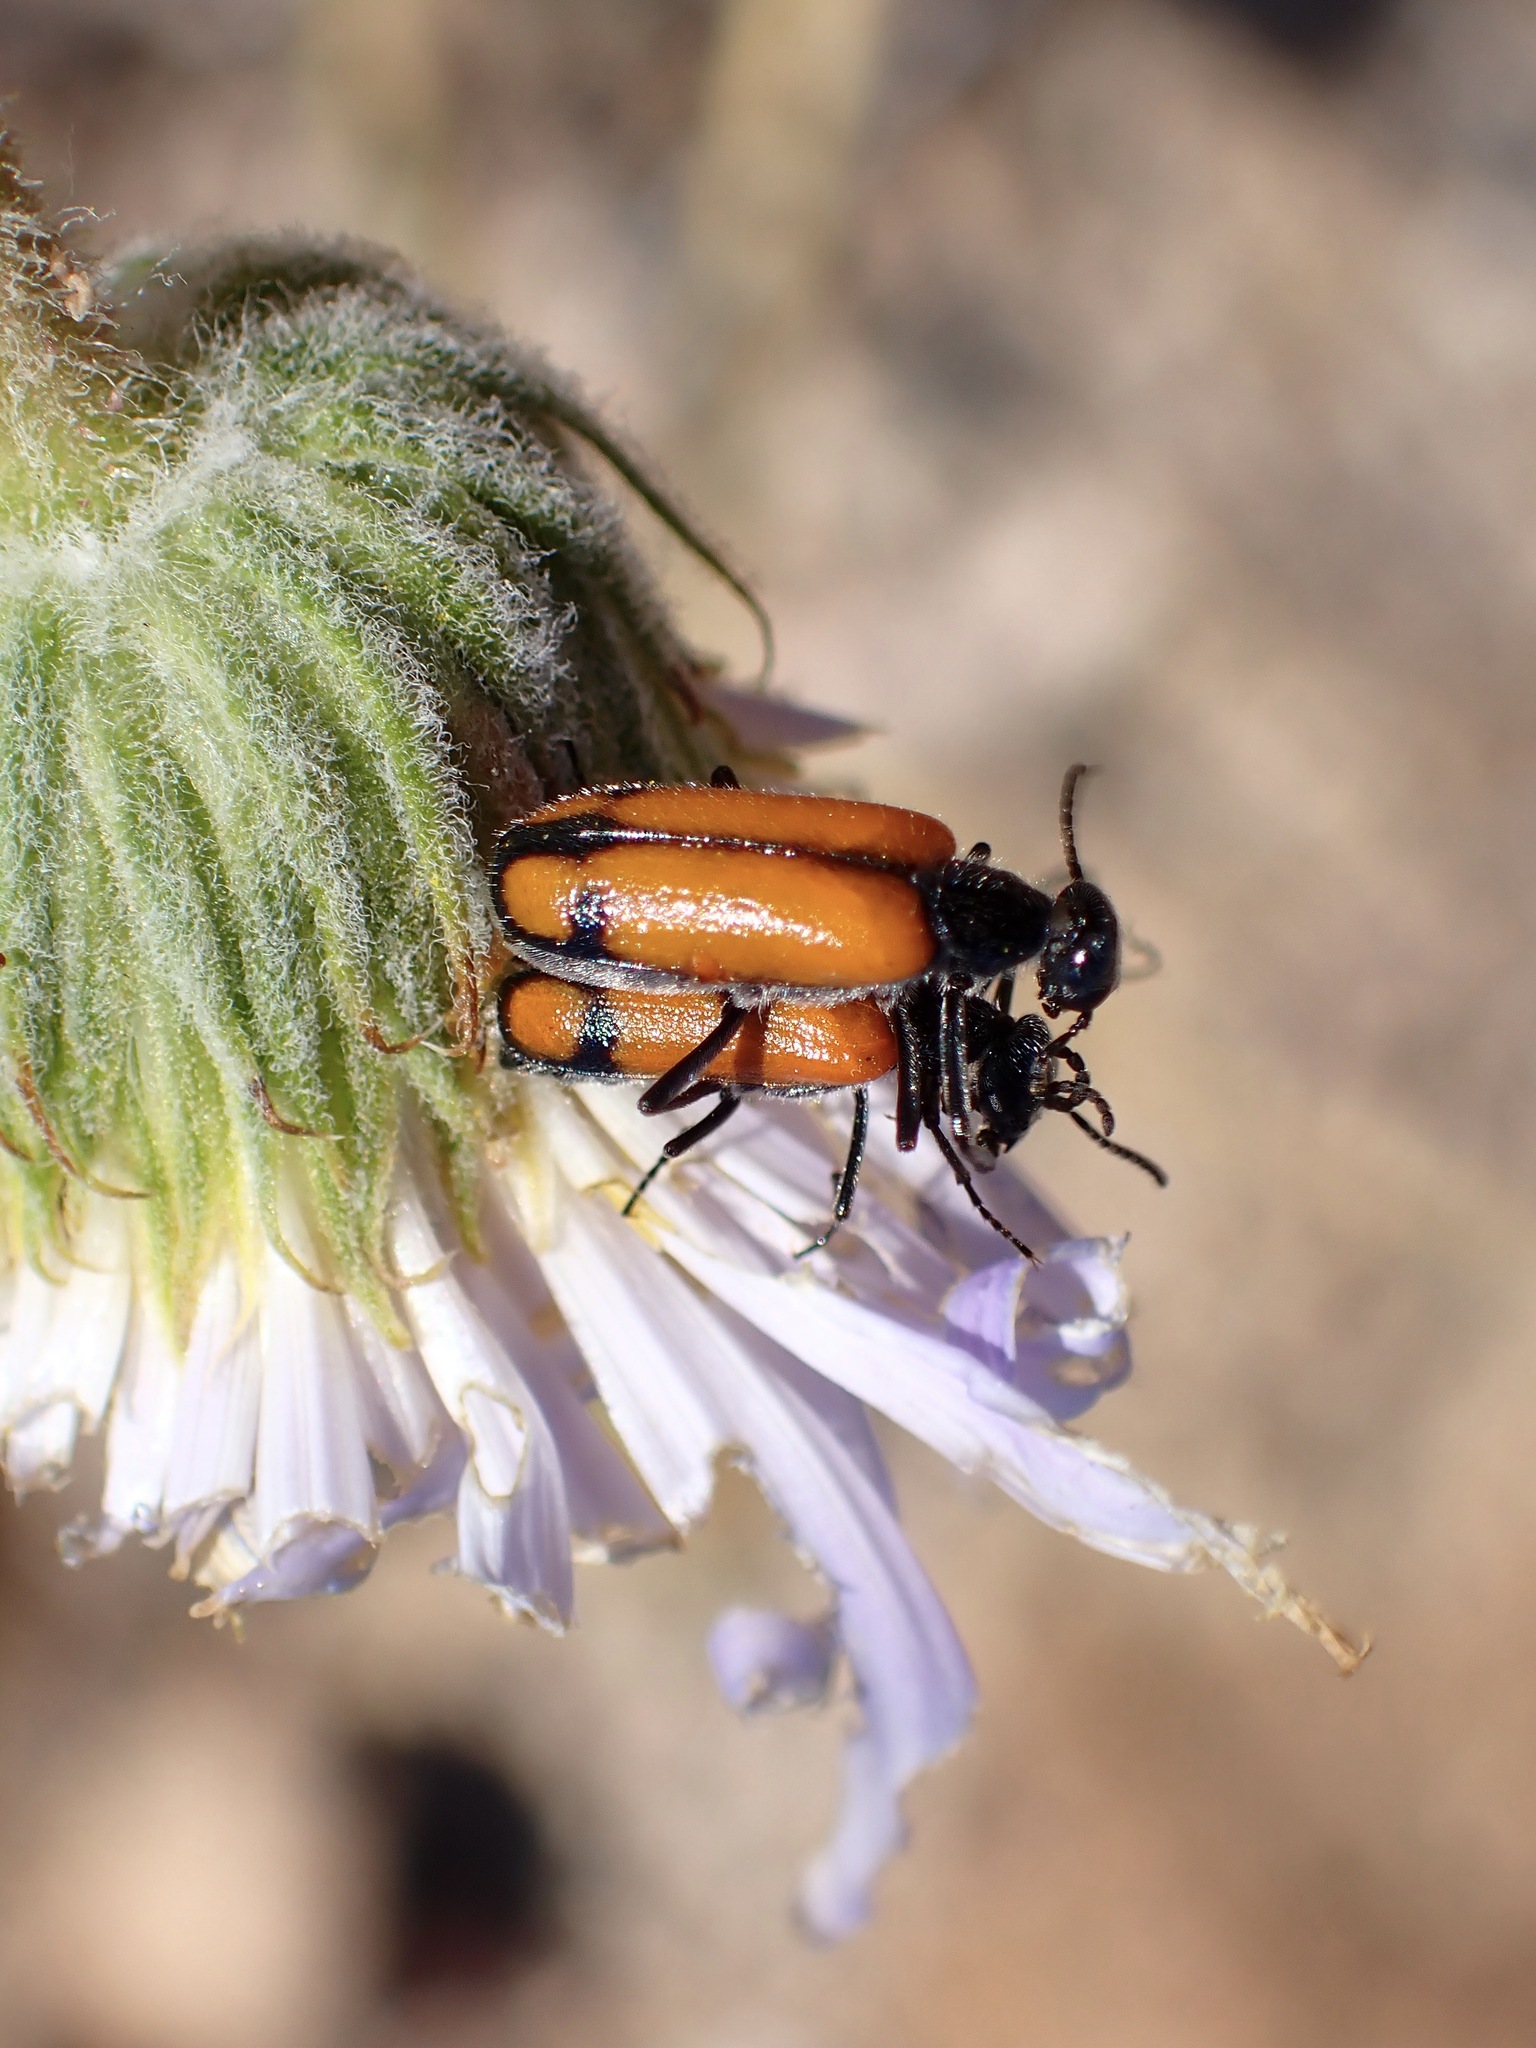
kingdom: Animalia
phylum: Arthropoda
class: Insecta
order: Coleoptera
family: Meloidae
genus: Eupompha
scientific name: Eupompha elegans
